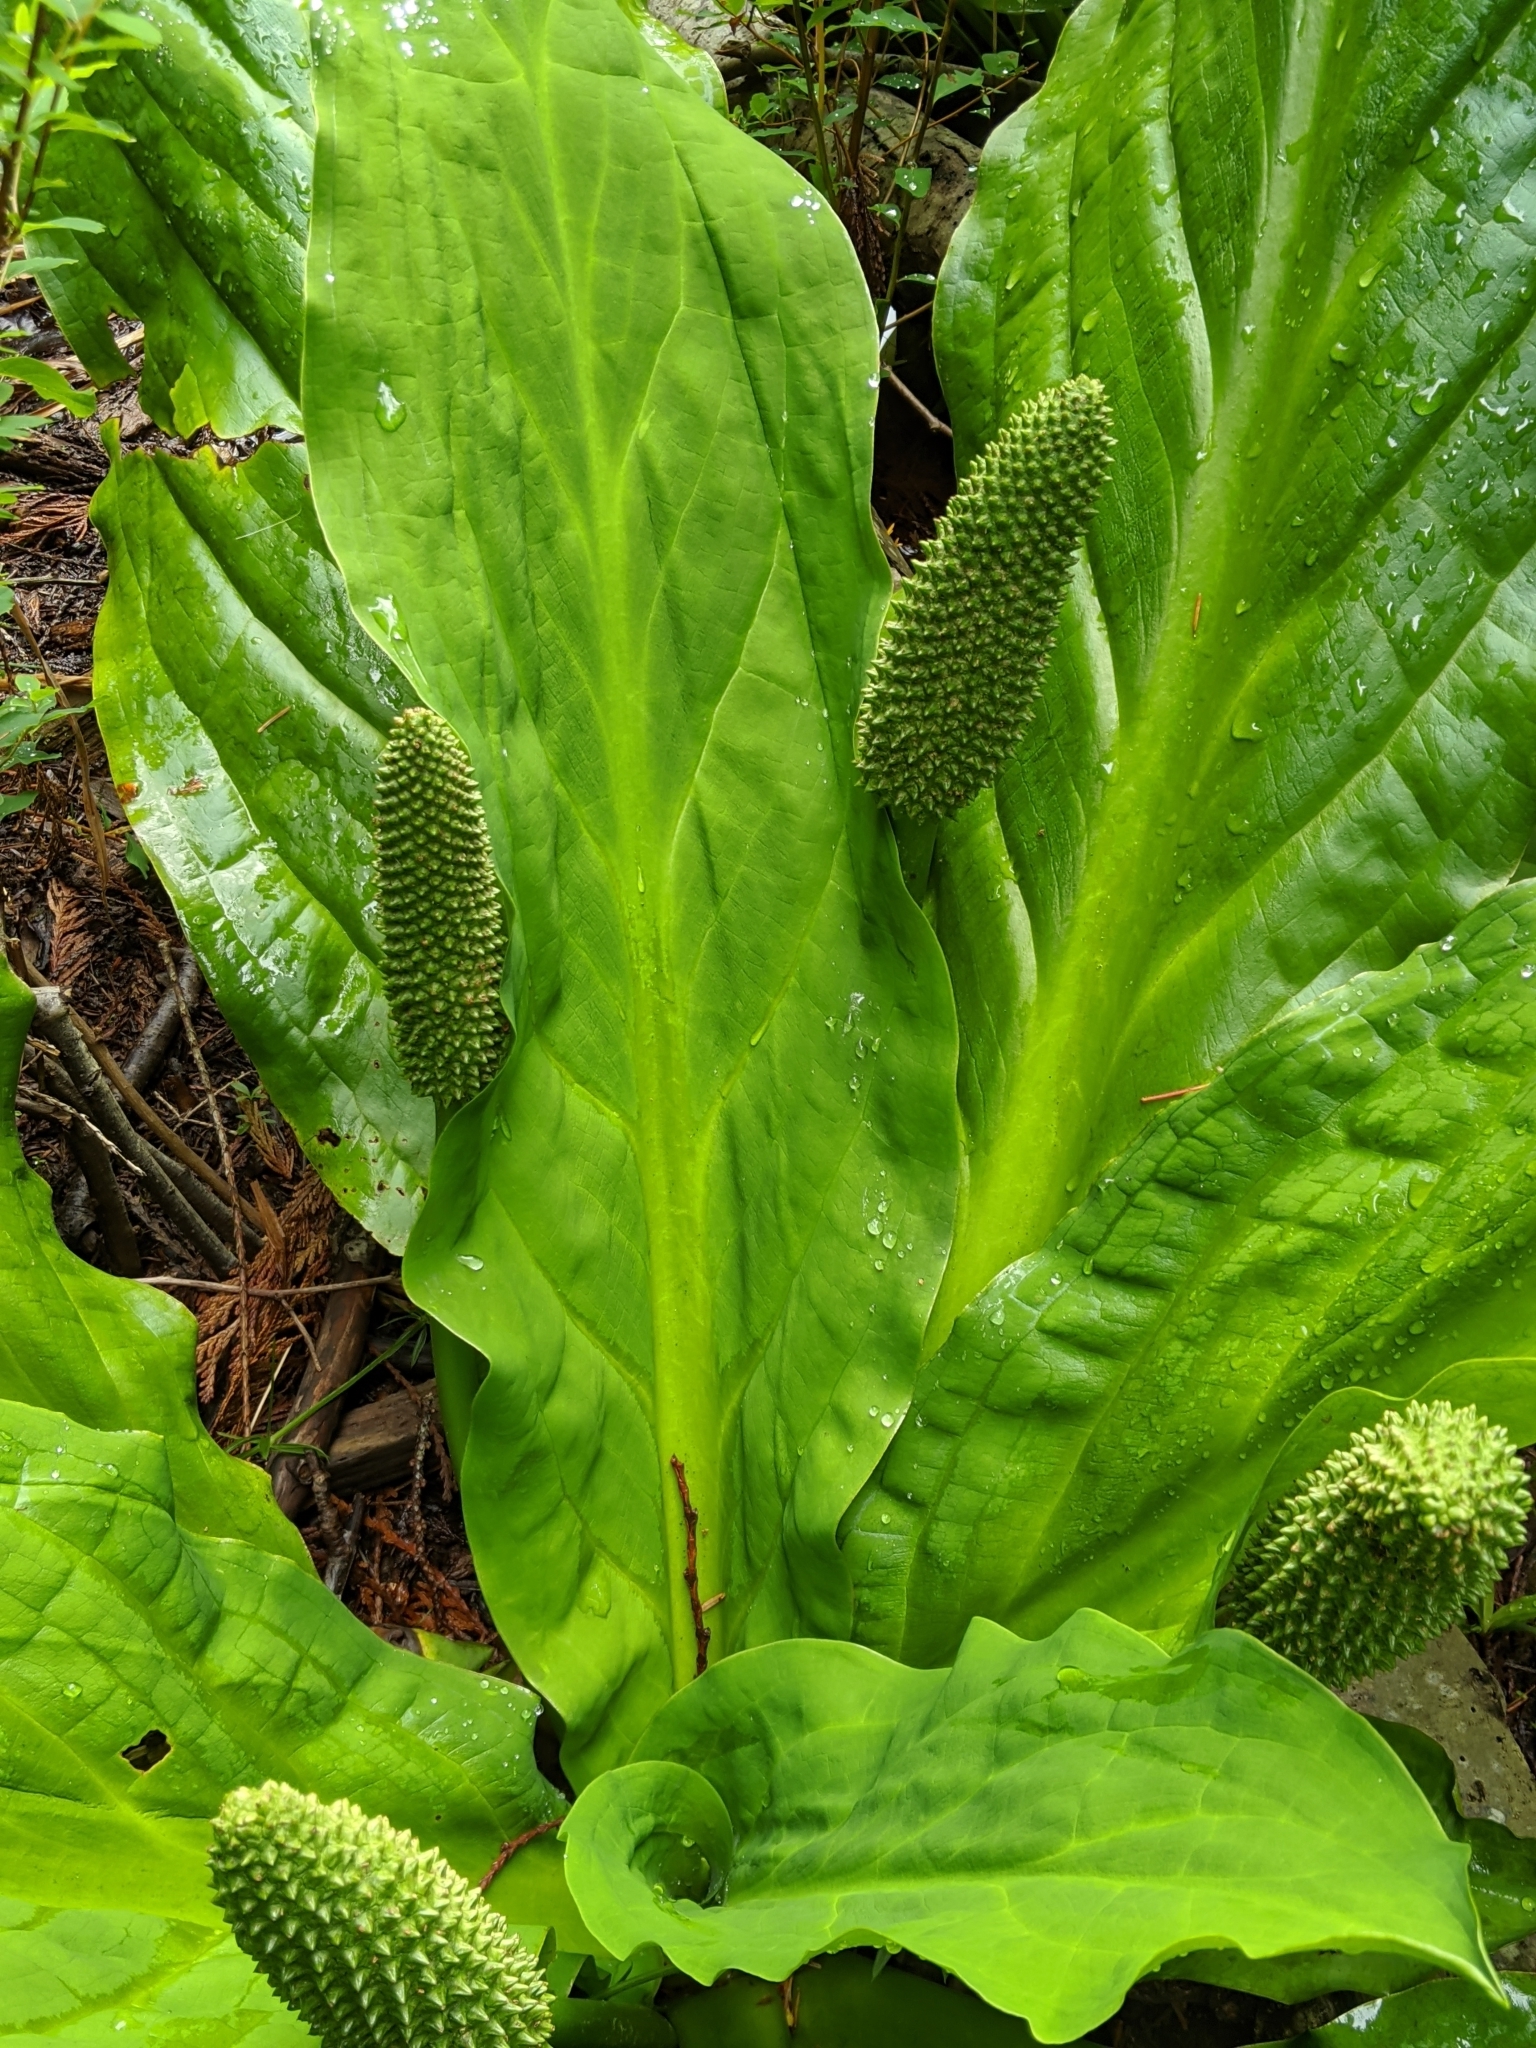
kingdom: Plantae
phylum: Tracheophyta
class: Liliopsida
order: Alismatales
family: Araceae
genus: Lysichiton
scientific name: Lysichiton americanus
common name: American skunk cabbage
